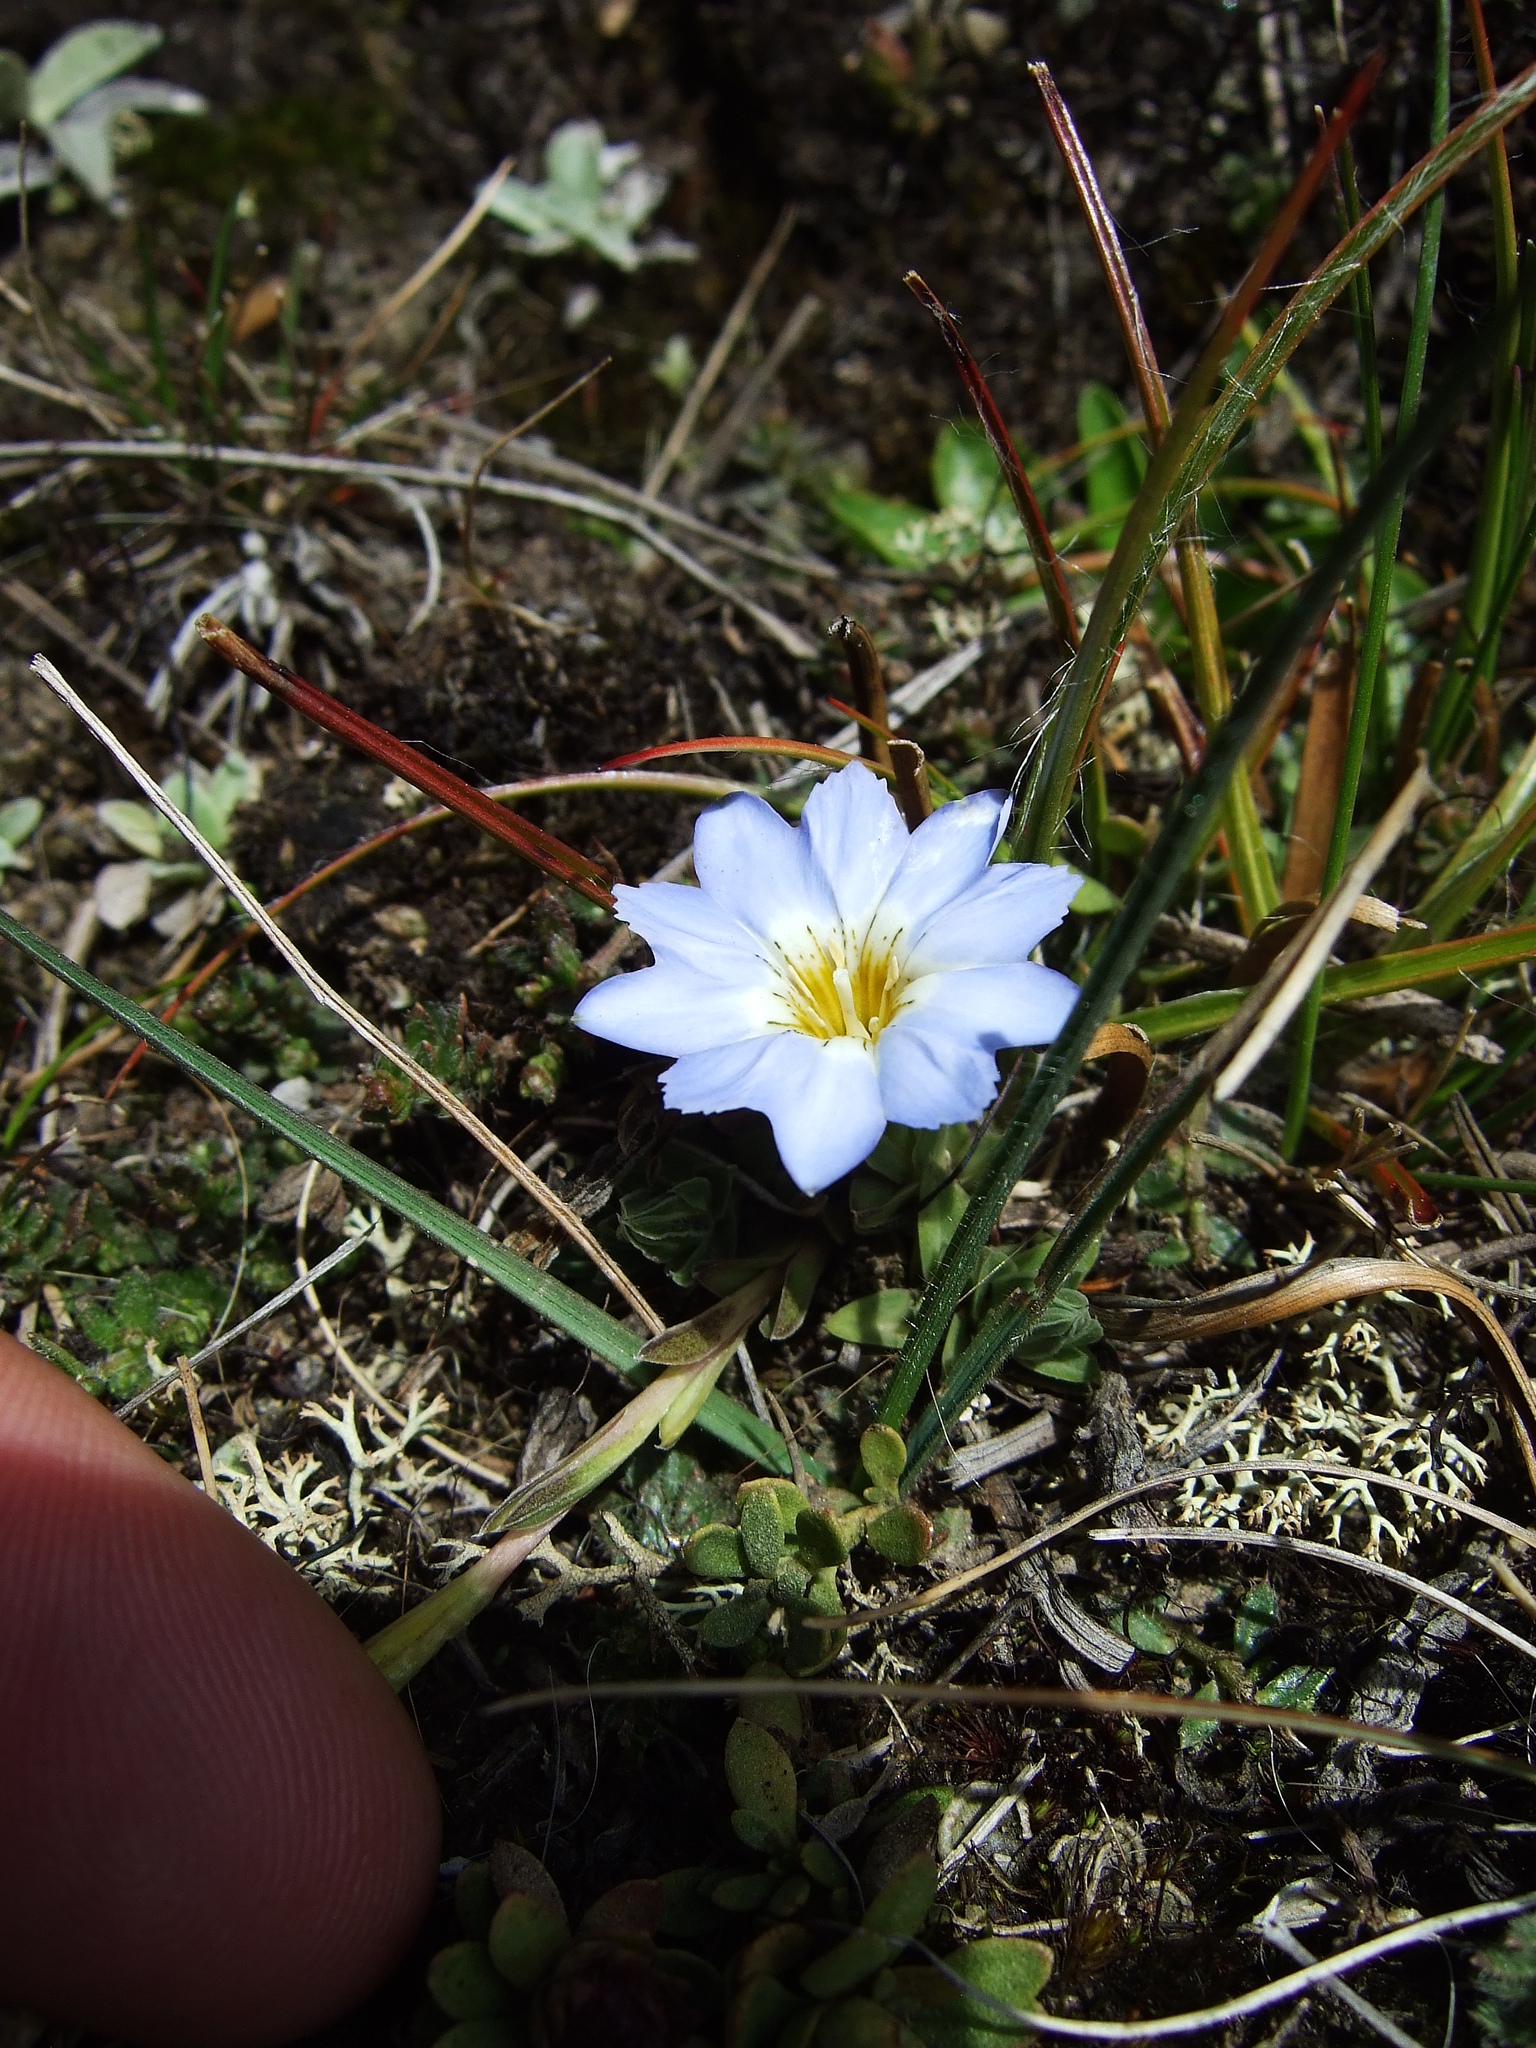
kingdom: Plantae
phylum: Tracheophyta
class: Magnoliopsida
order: Gentianales
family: Gentianaceae
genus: Gentiana
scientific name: Gentiana sedifolia
